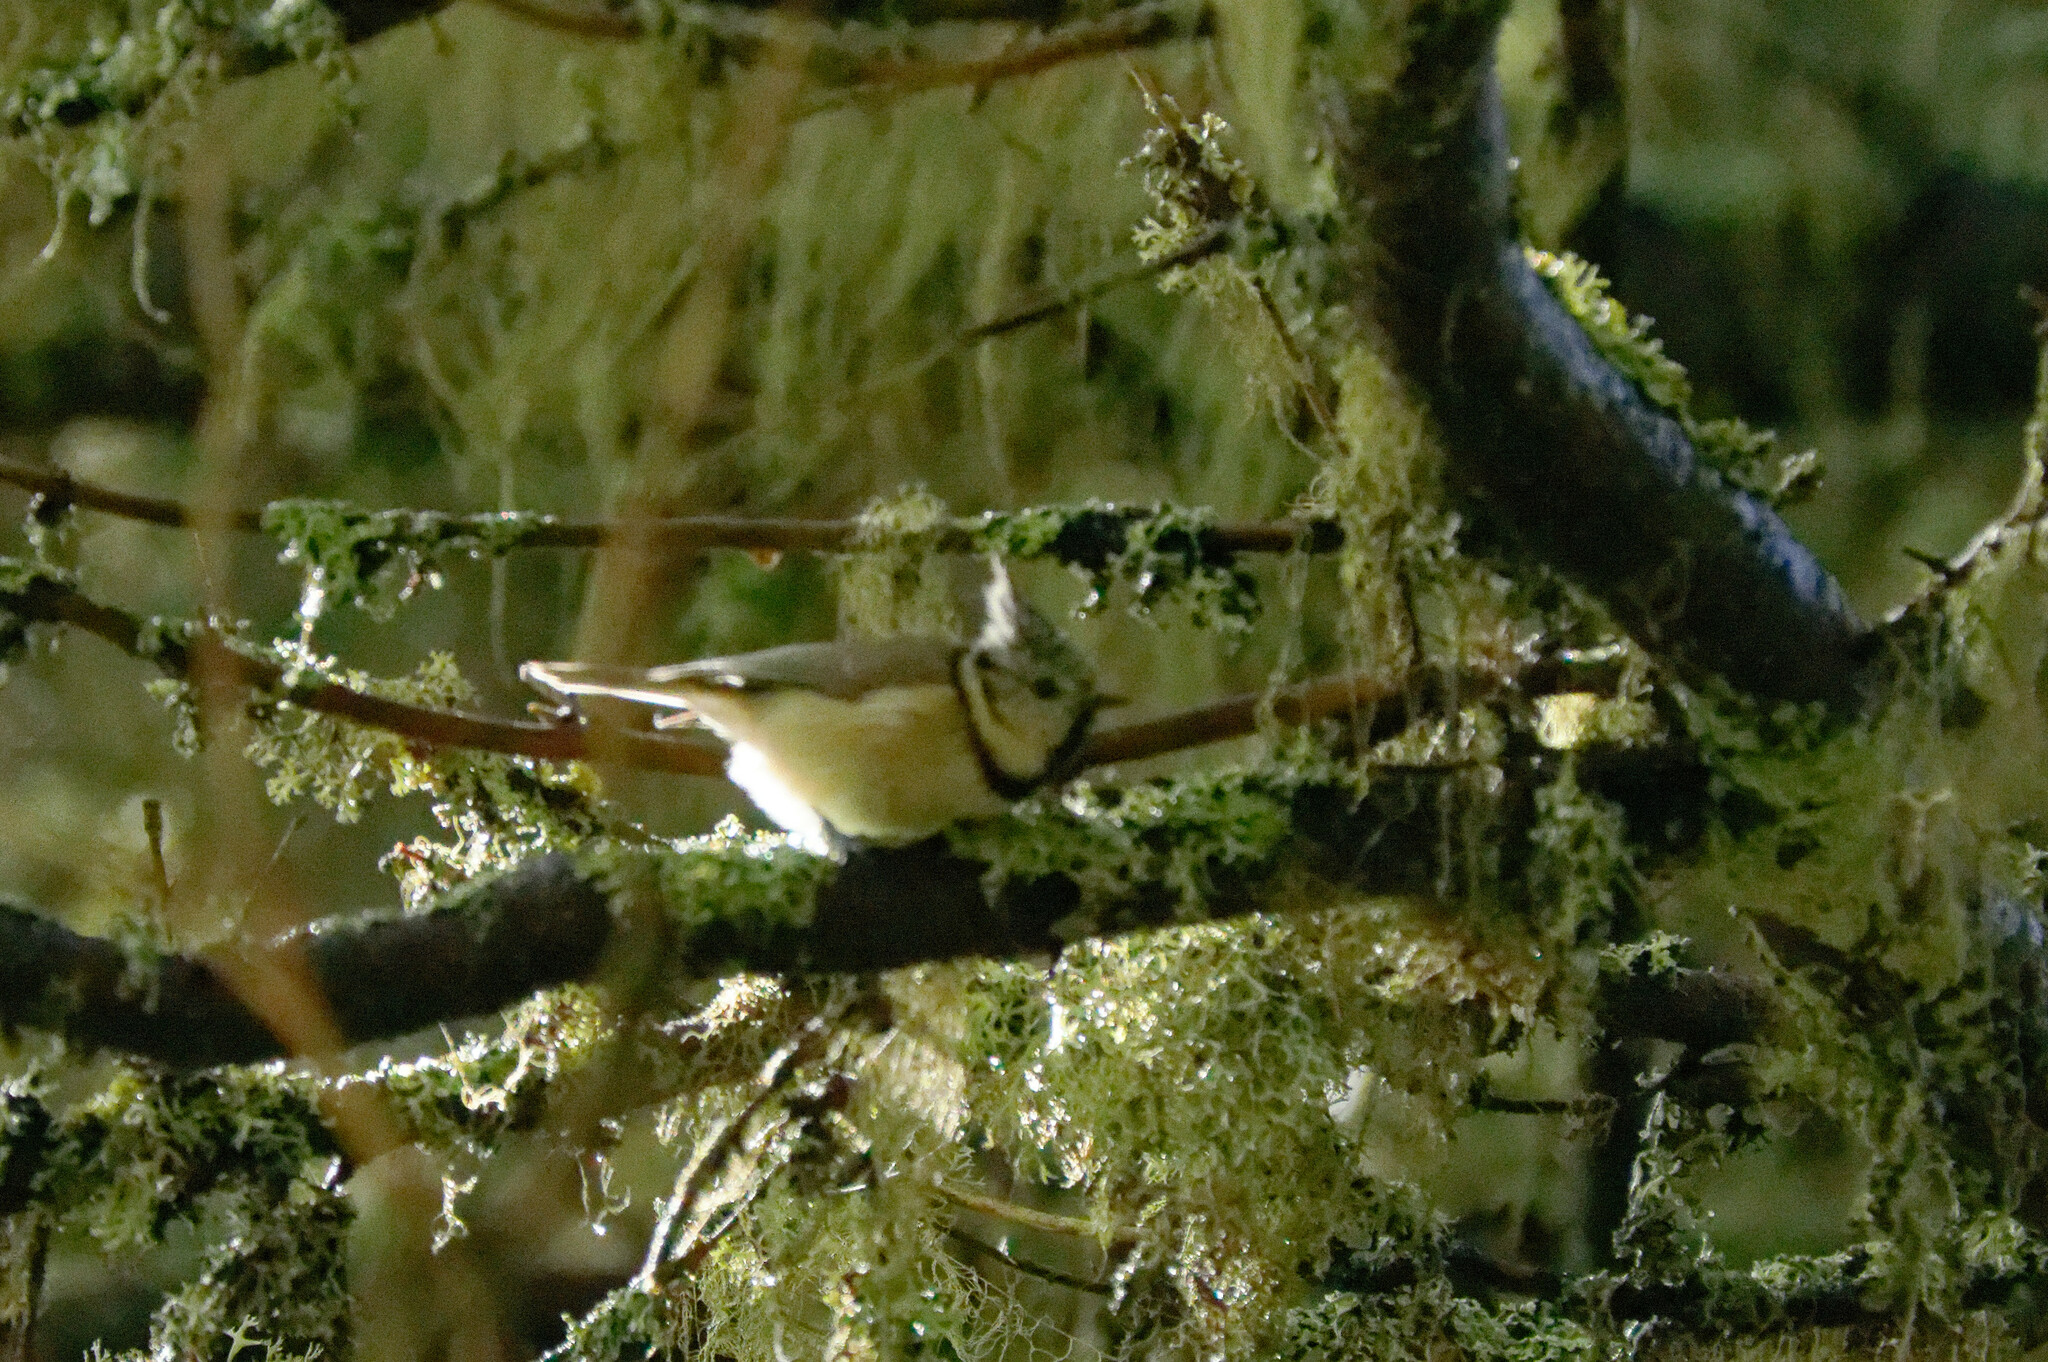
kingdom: Animalia
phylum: Chordata
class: Aves
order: Passeriformes
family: Paridae
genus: Lophophanes
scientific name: Lophophanes cristatus
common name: European crested tit
